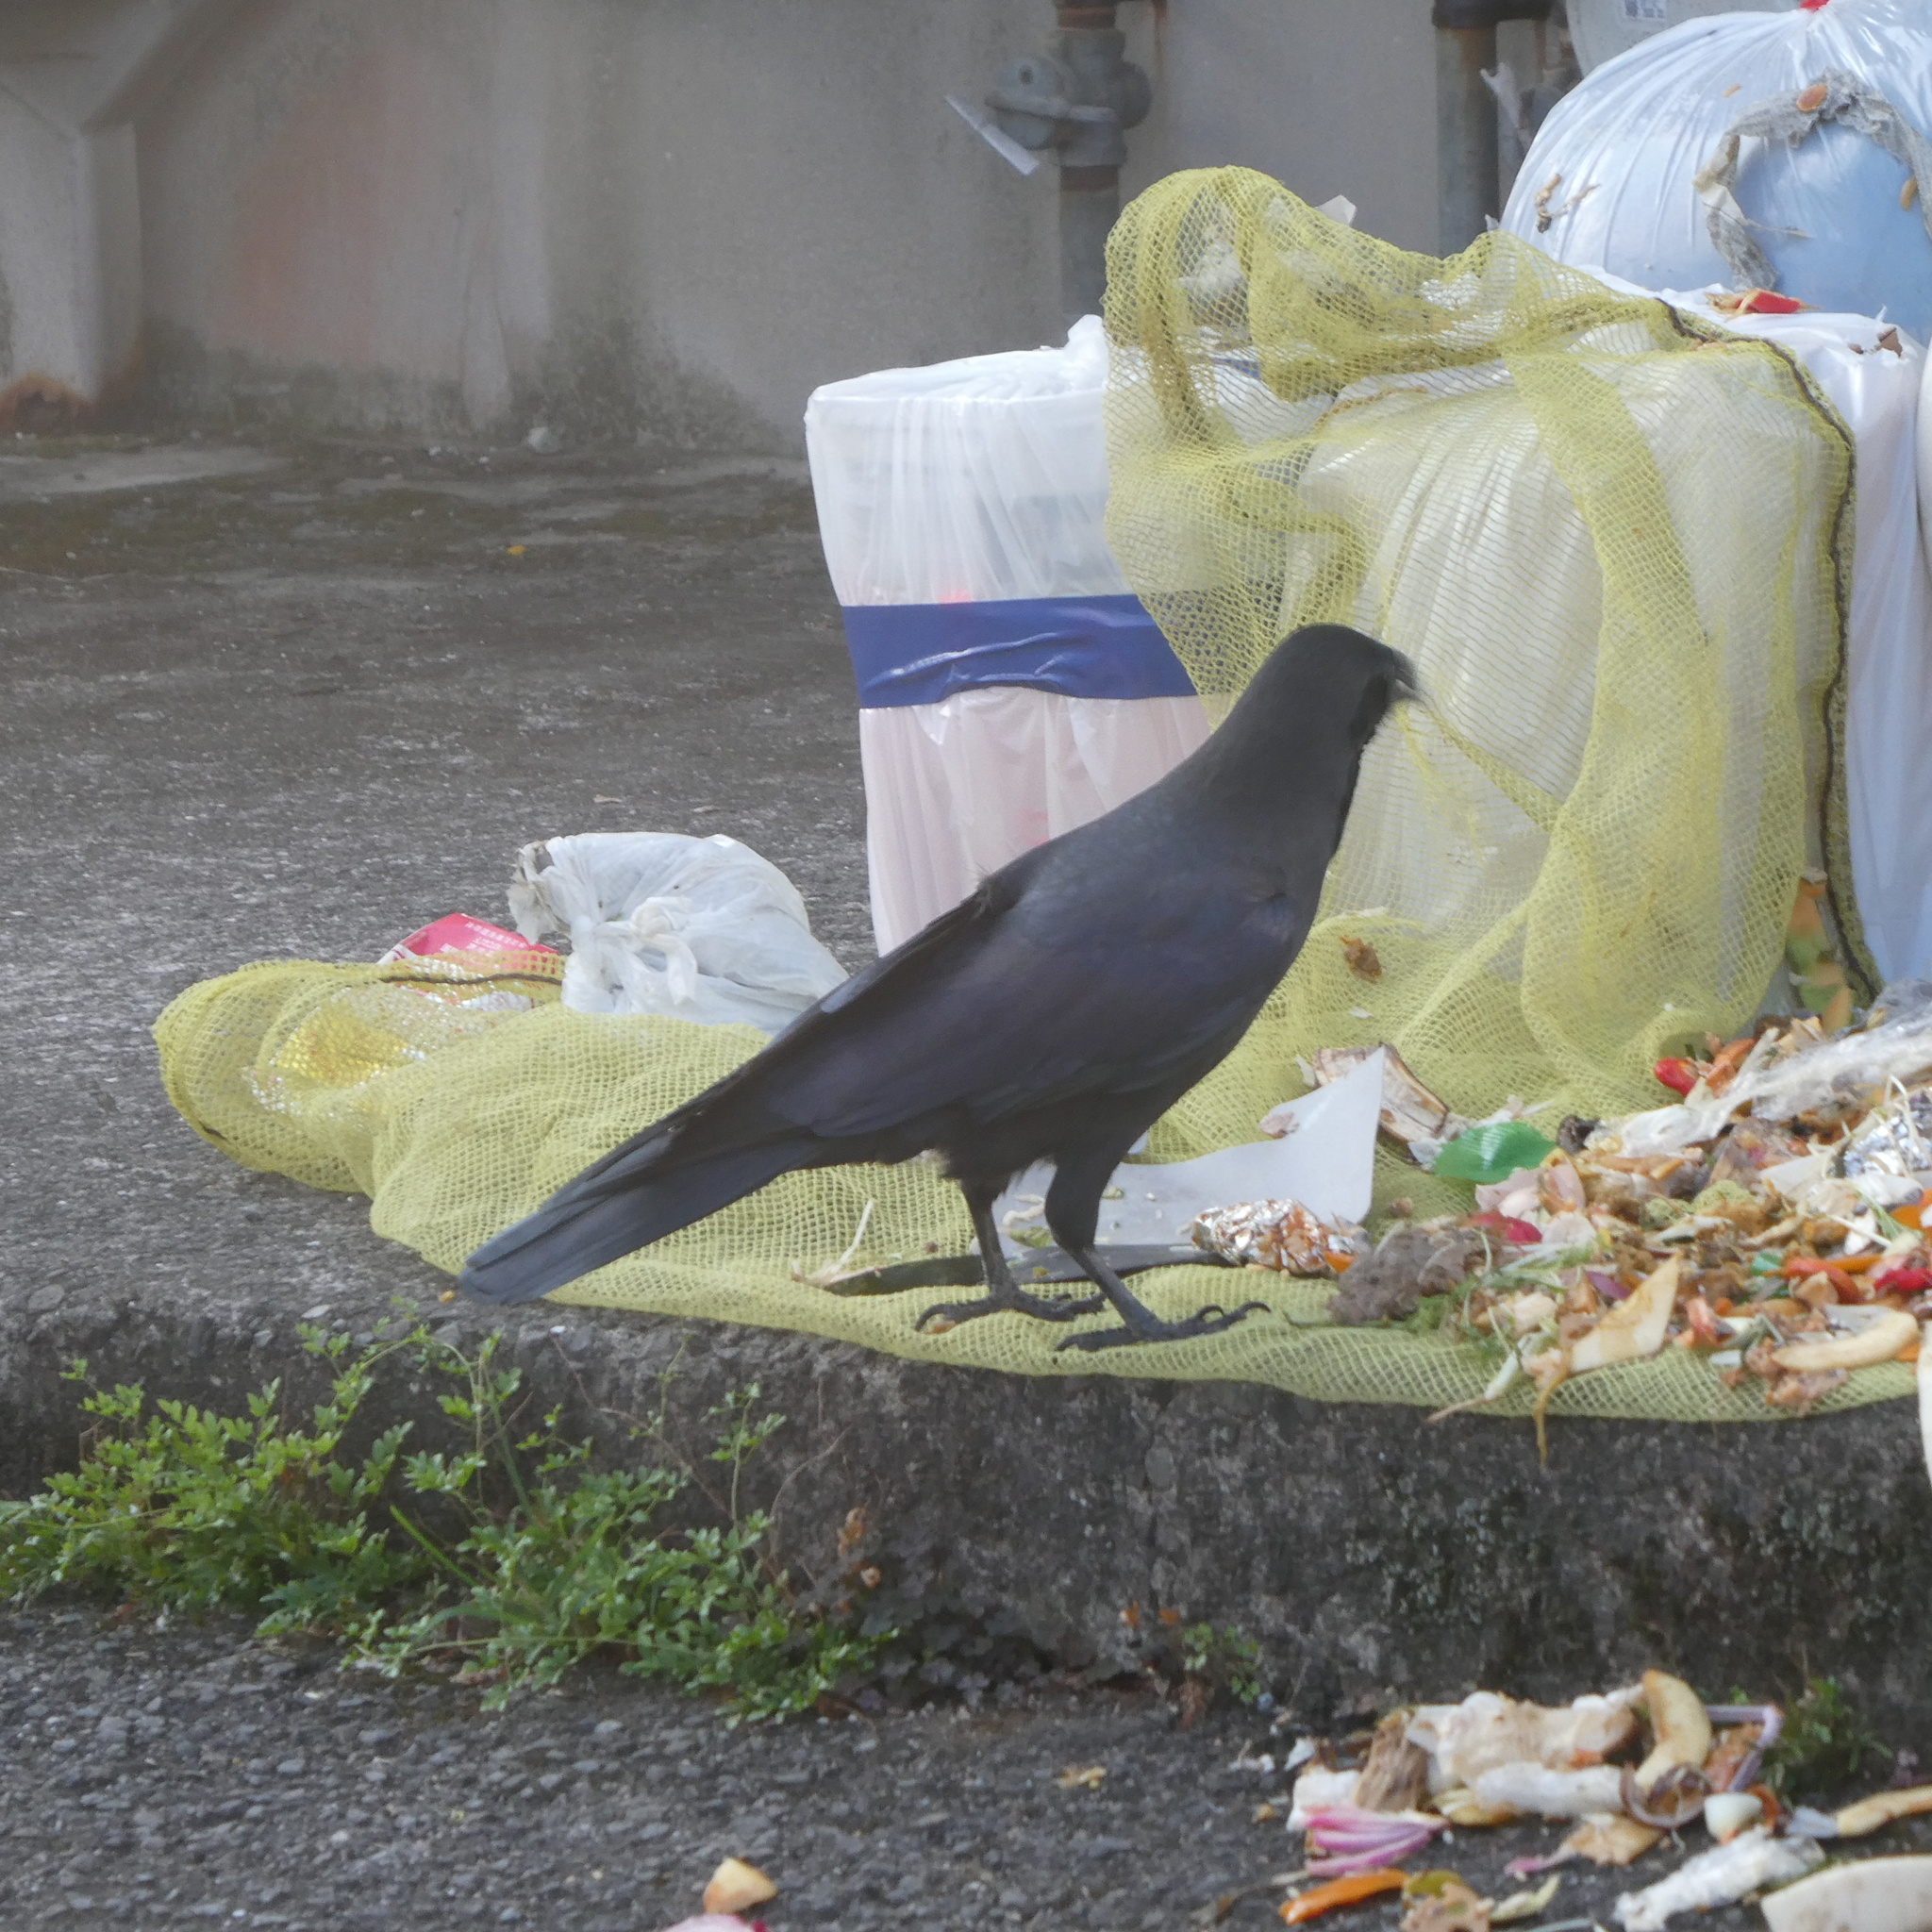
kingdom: Animalia
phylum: Chordata
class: Aves
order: Passeriformes
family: Corvidae
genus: Corvus
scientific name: Corvus macrorhynchos
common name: Large-billed crow
